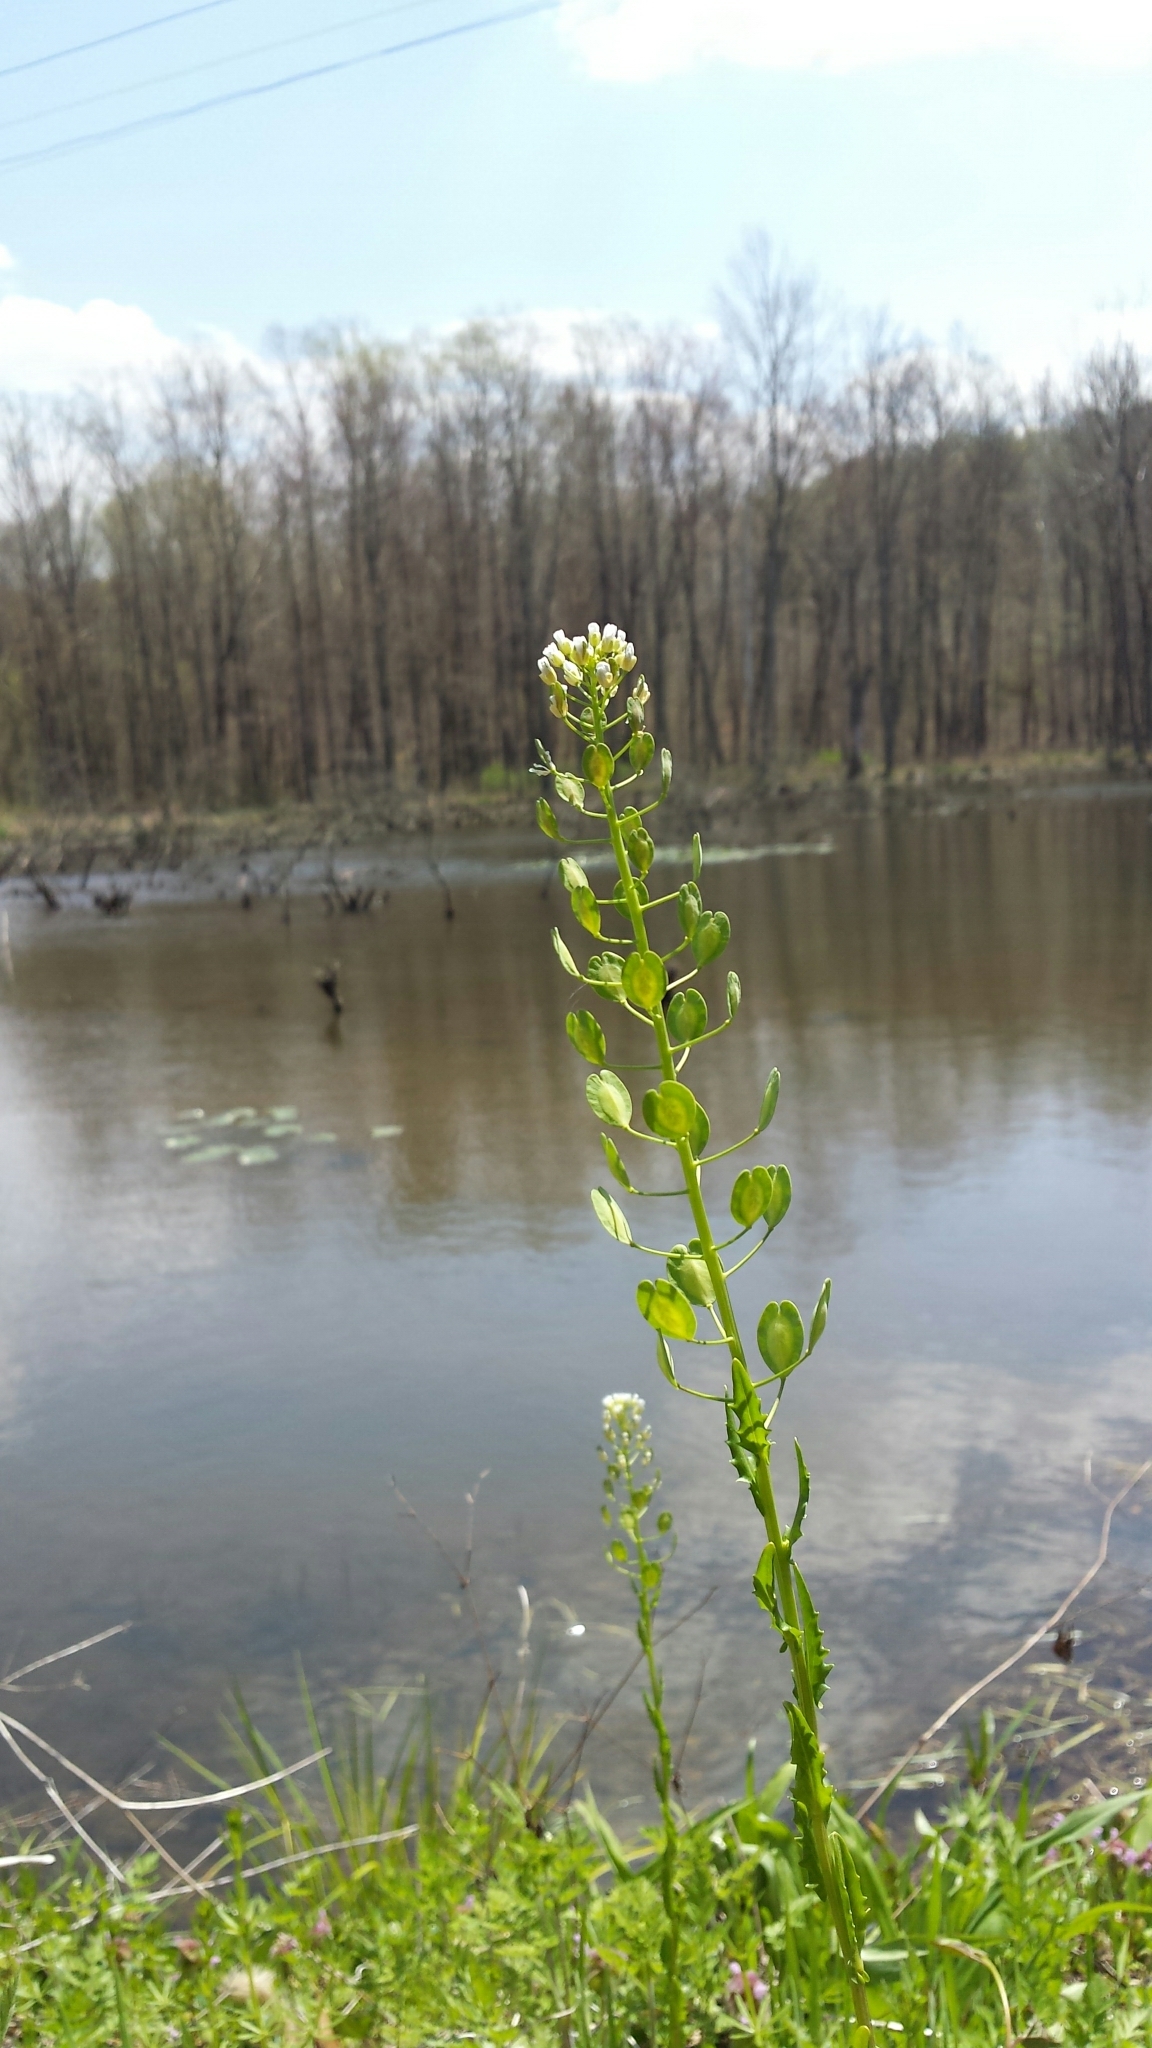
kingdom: Plantae
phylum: Tracheophyta
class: Magnoliopsida
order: Brassicales
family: Brassicaceae
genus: Thlaspi
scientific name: Thlaspi arvense
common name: Field pennycress
